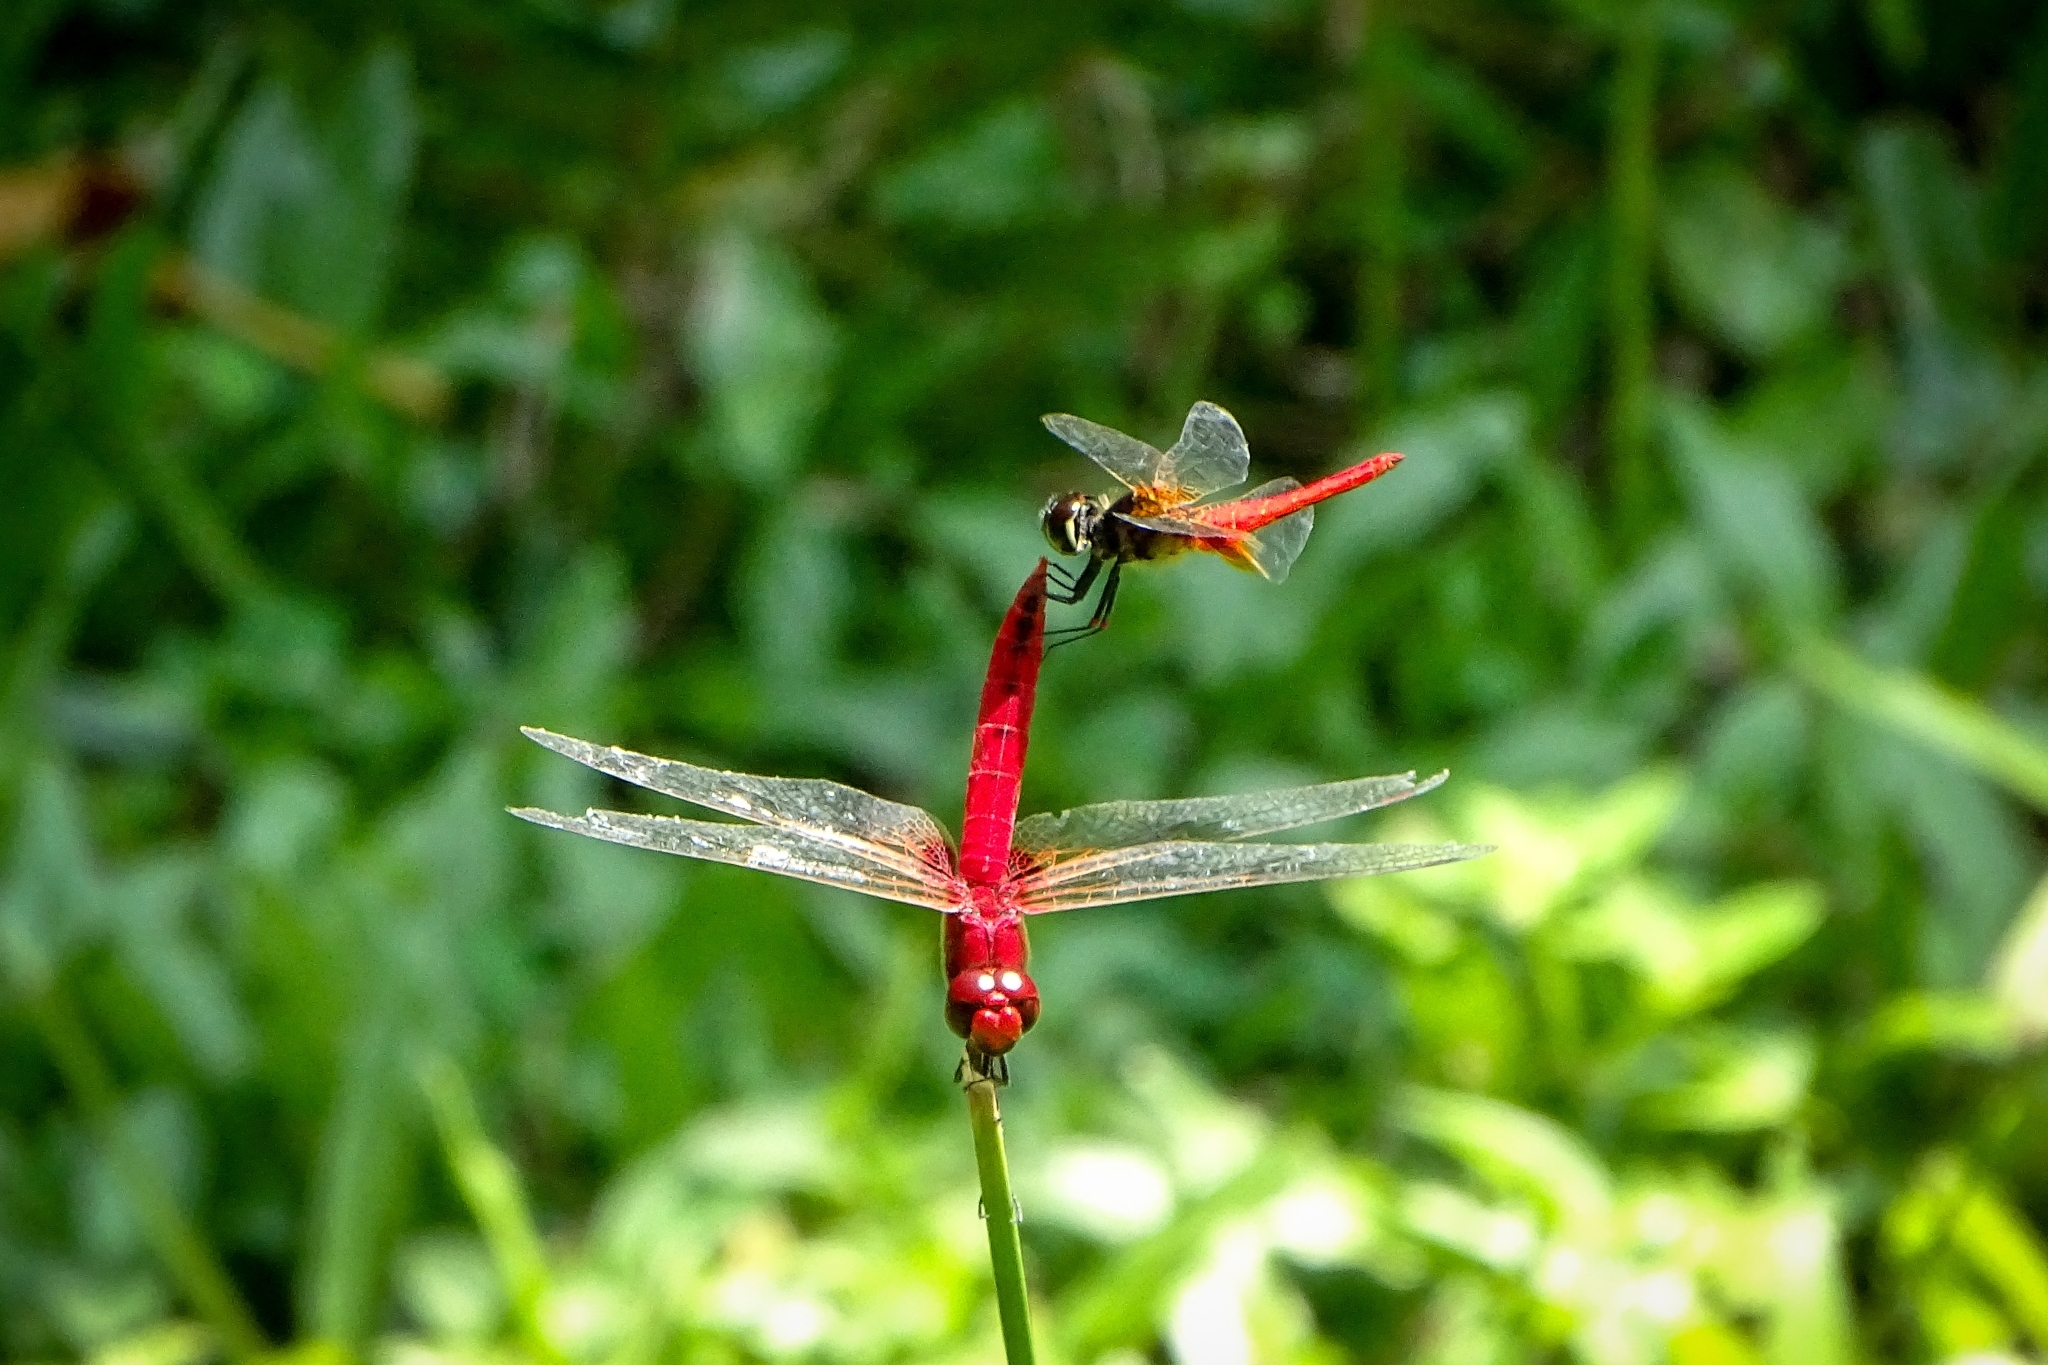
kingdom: Animalia
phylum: Arthropoda
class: Insecta
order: Odonata
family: Libellulidae
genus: Urothemis
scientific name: Urothemis signata
